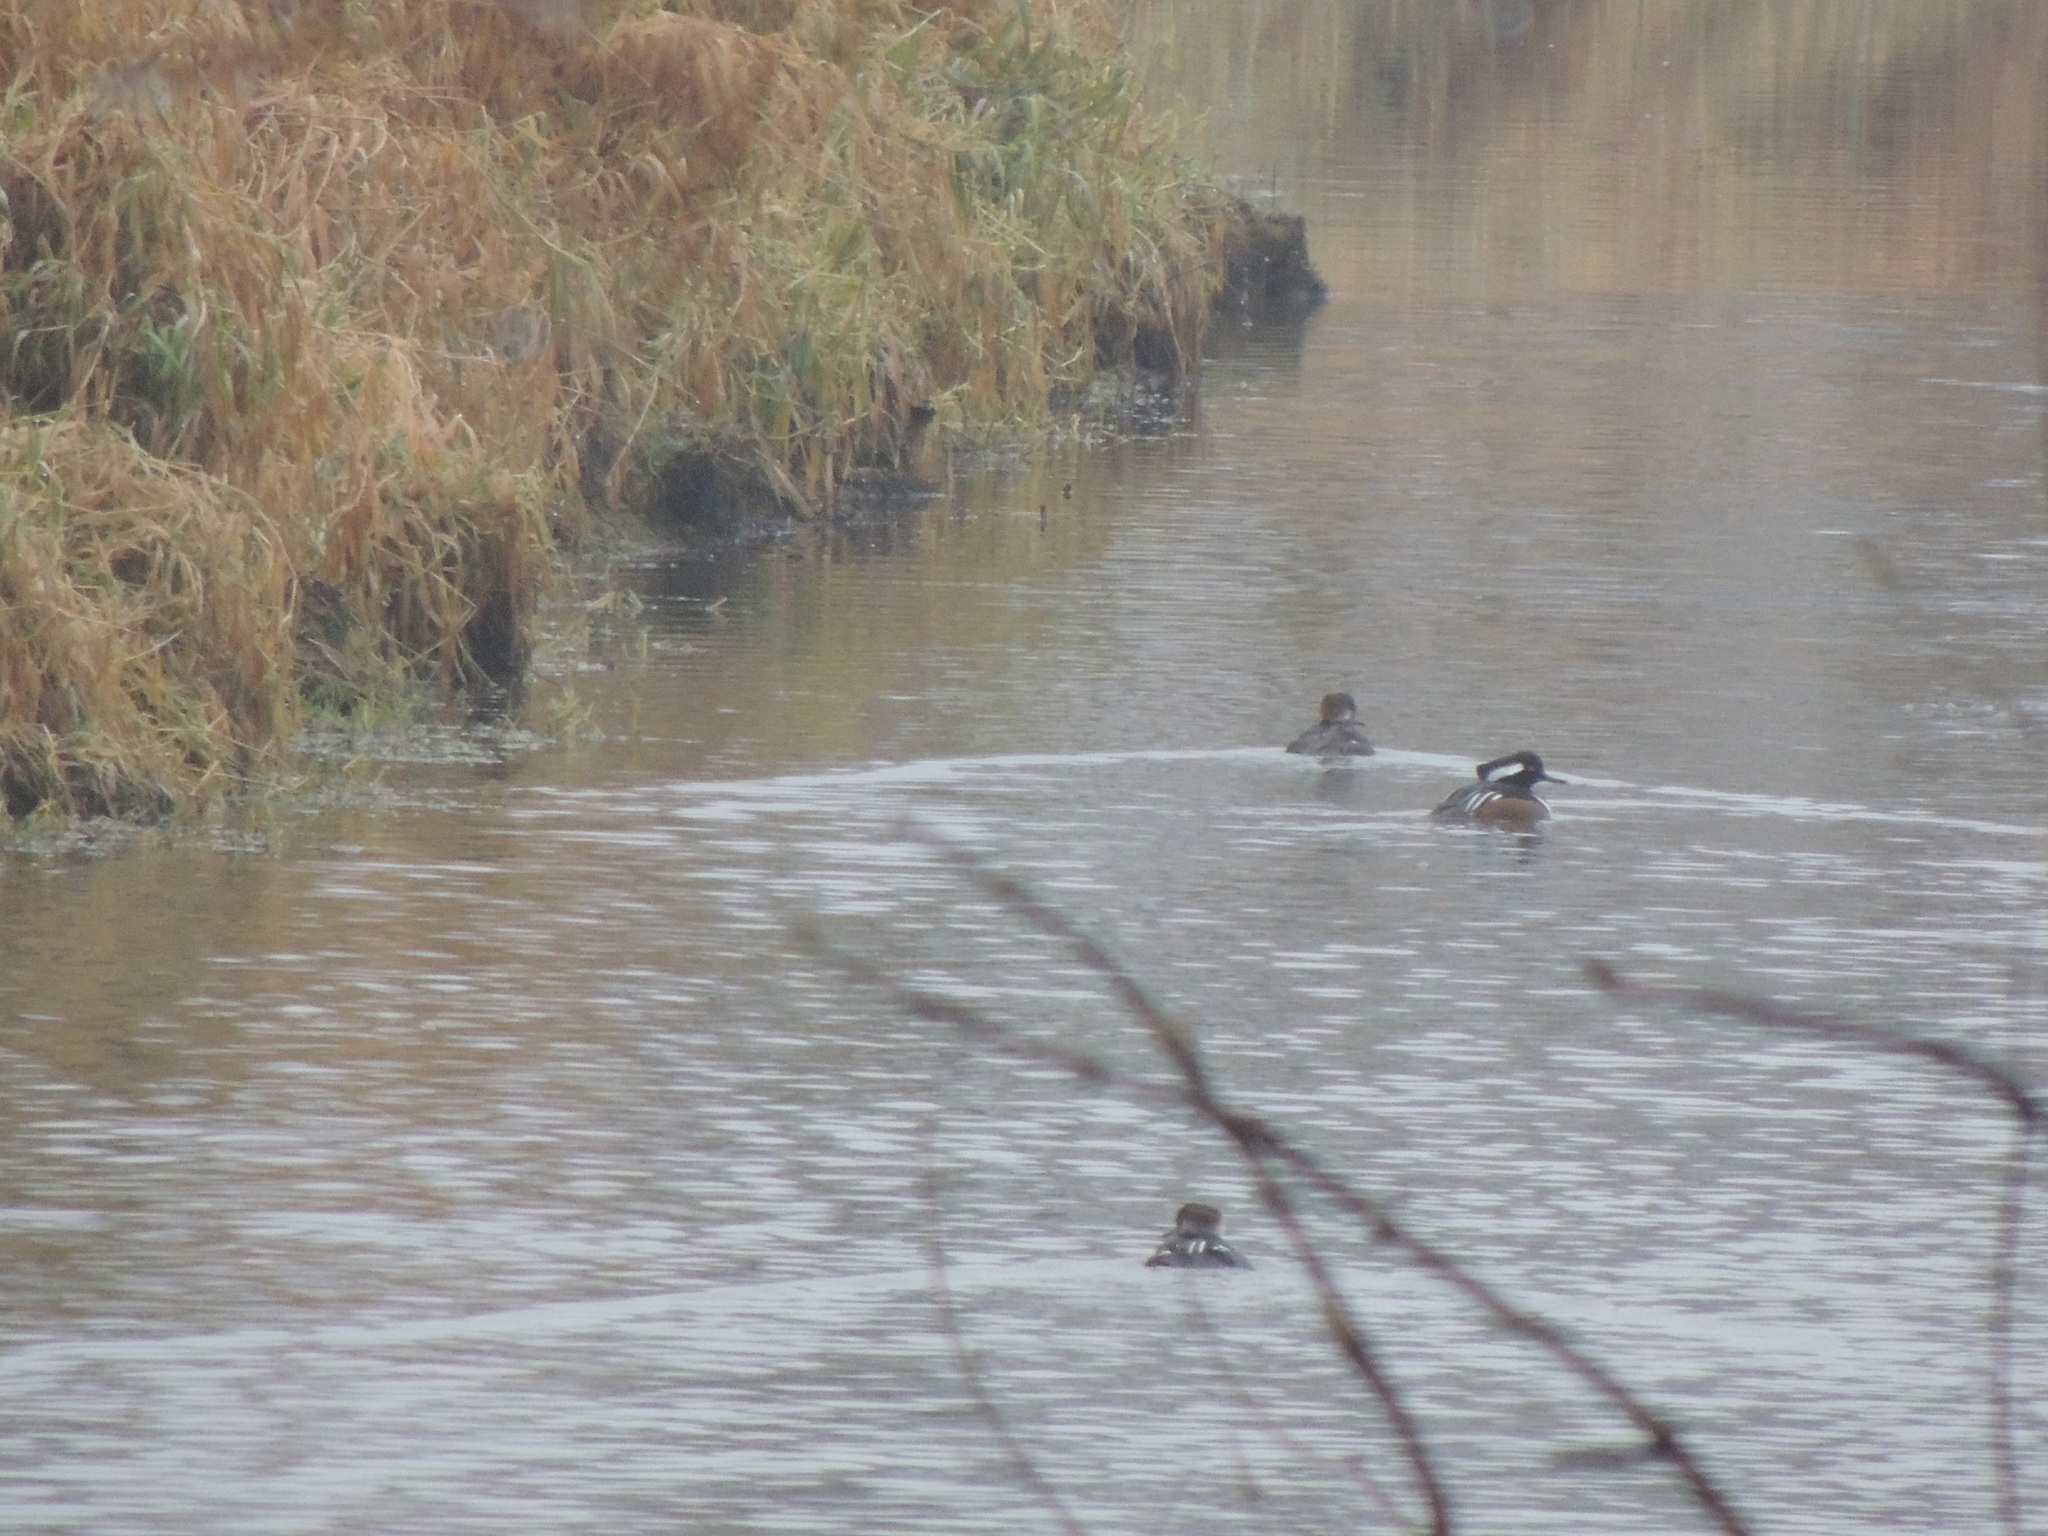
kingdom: Animalia
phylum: Chordata
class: Aves
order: Anseriformes
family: Anatidae
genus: Lophodytes
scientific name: Lophodytes cucullatus
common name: Hooded merganser
